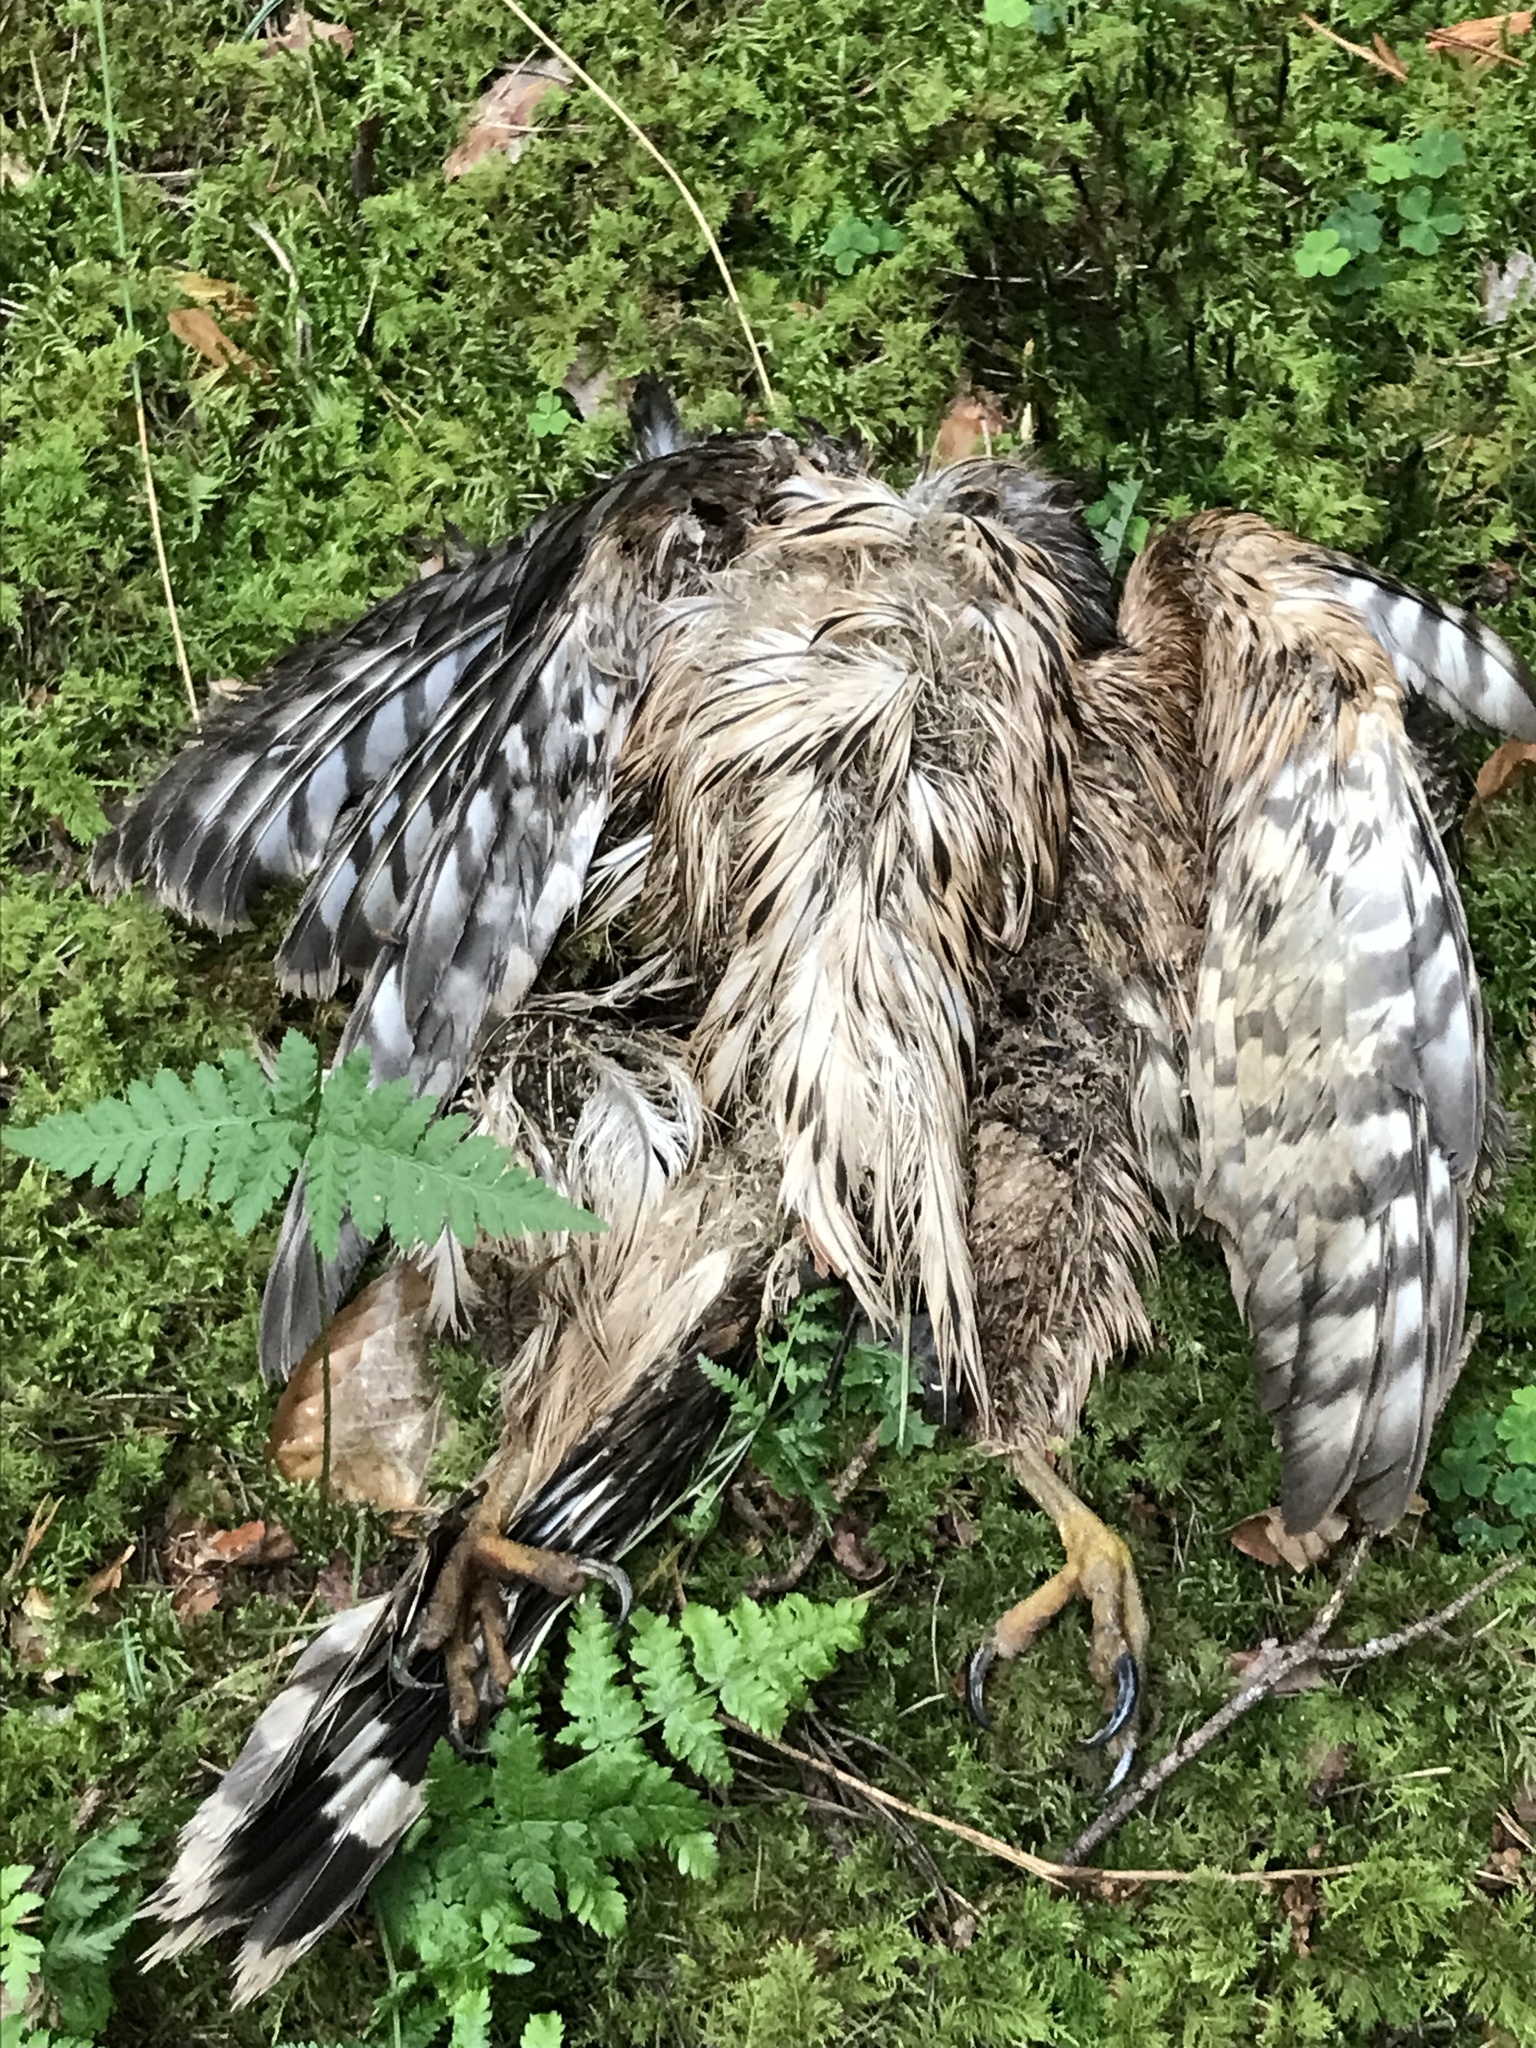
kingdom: Animalia
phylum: Chordata
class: Aves
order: Accipitriformes
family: Accipitridae
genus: Accipiter
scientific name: Accipiter gentilis
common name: Northern goshawk
